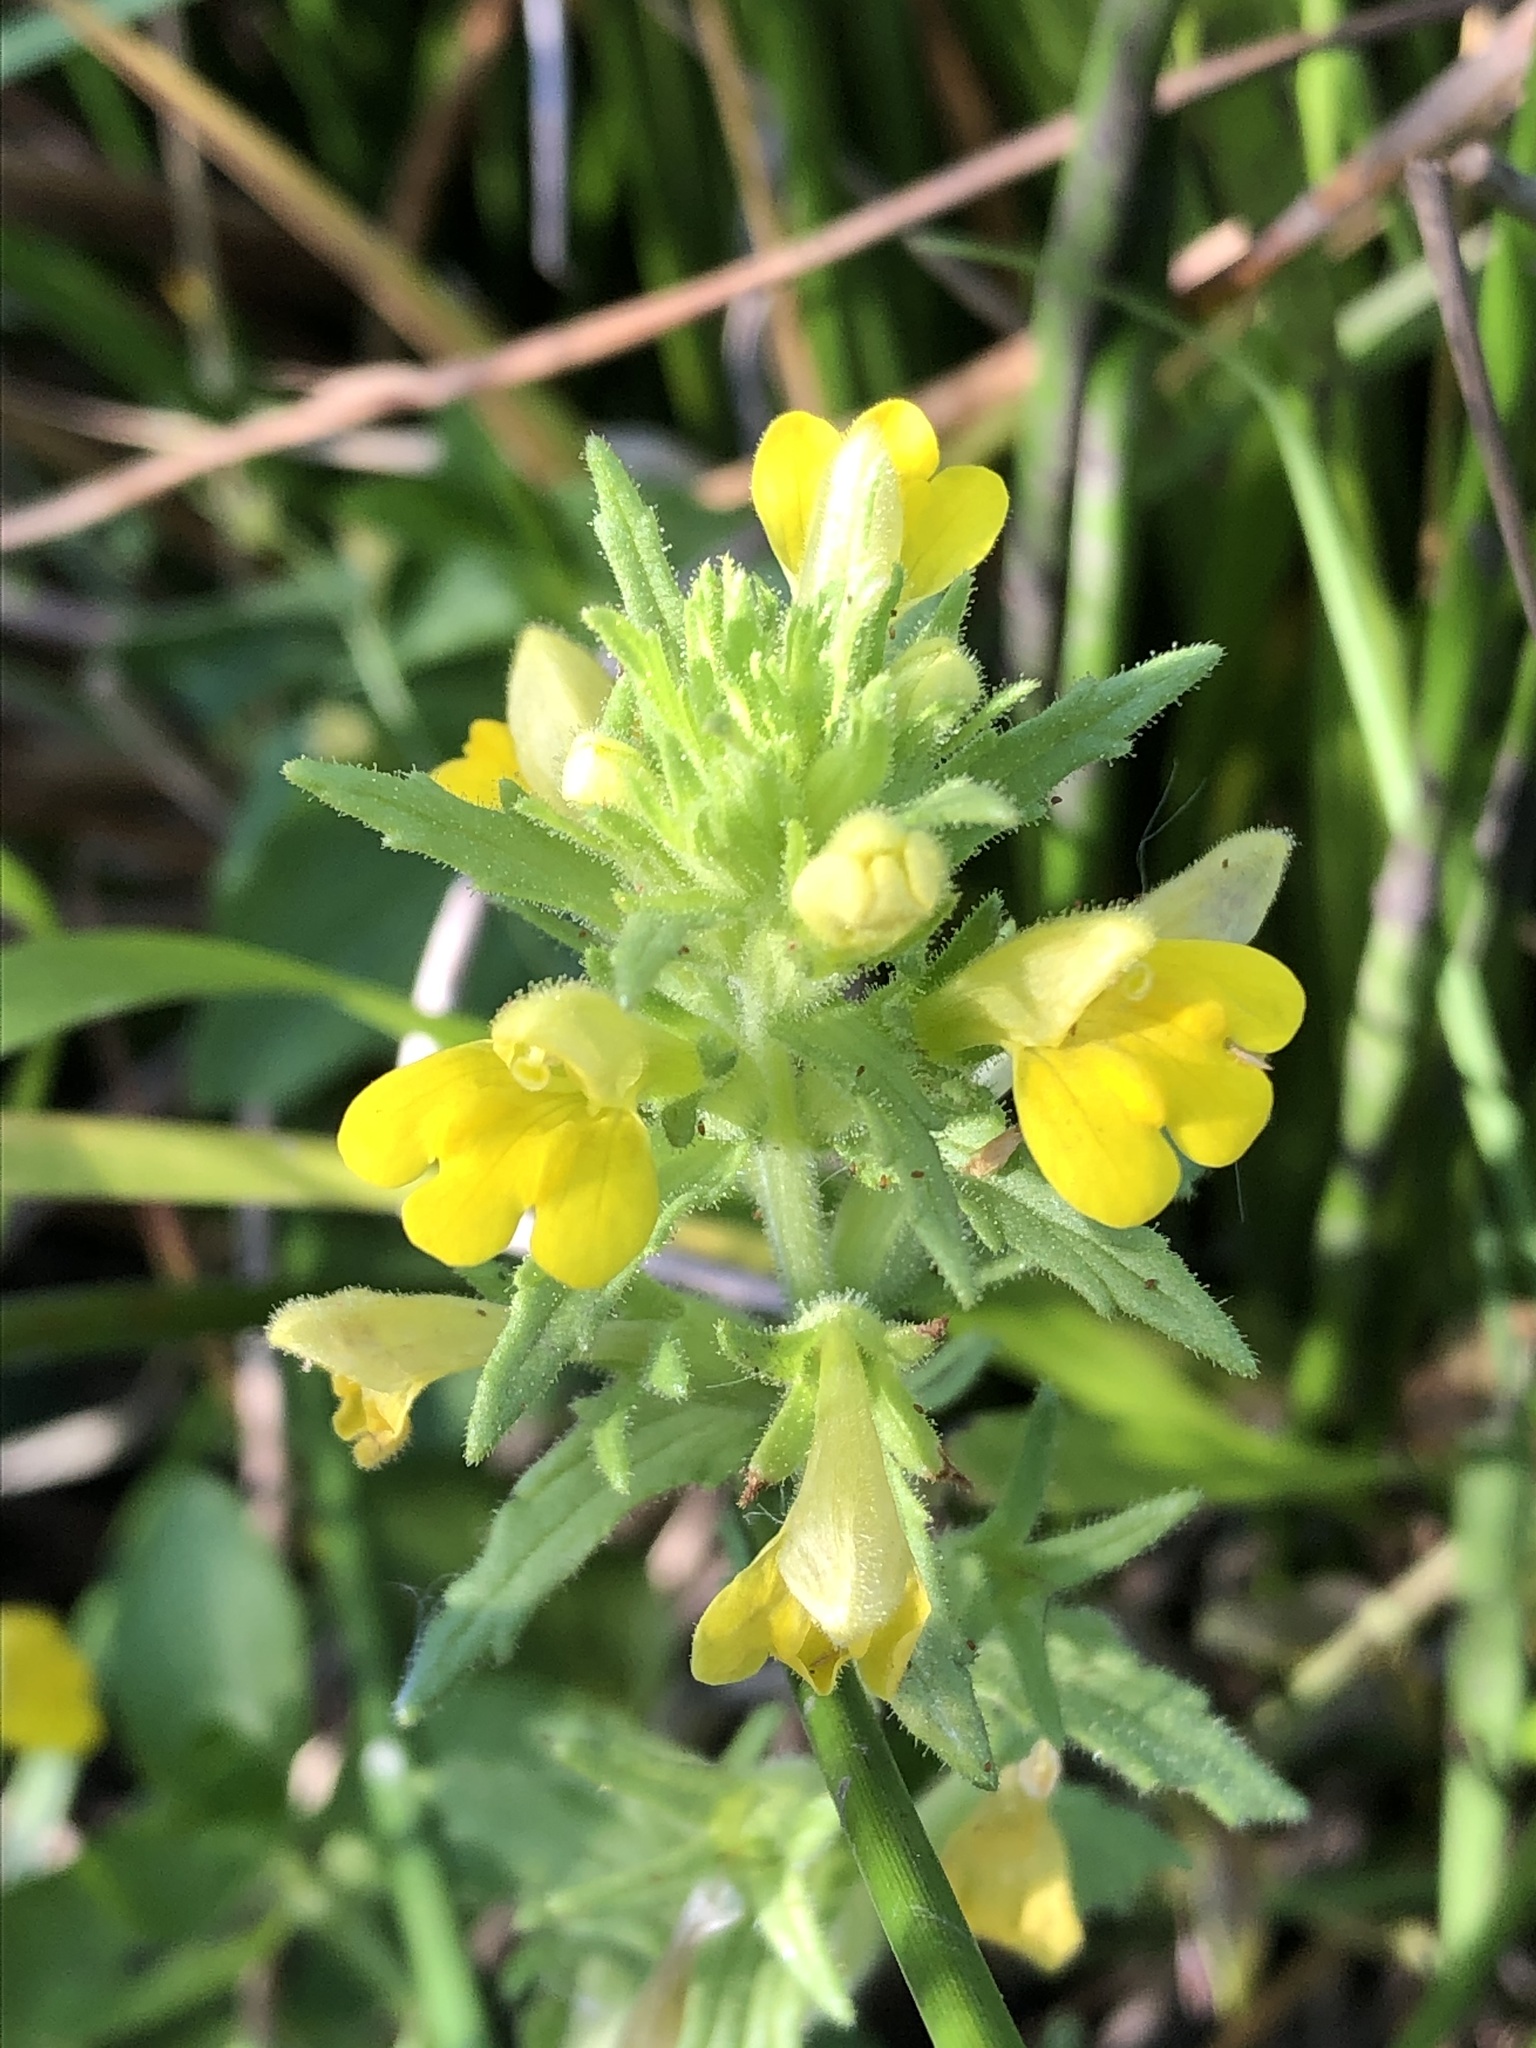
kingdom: Plantae
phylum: Tracheophyta
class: Magnoliopsida
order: Lamiales
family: Orobanchaceae
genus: Bellardia
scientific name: Bellardia viscosa
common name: Sticky parentucellia
